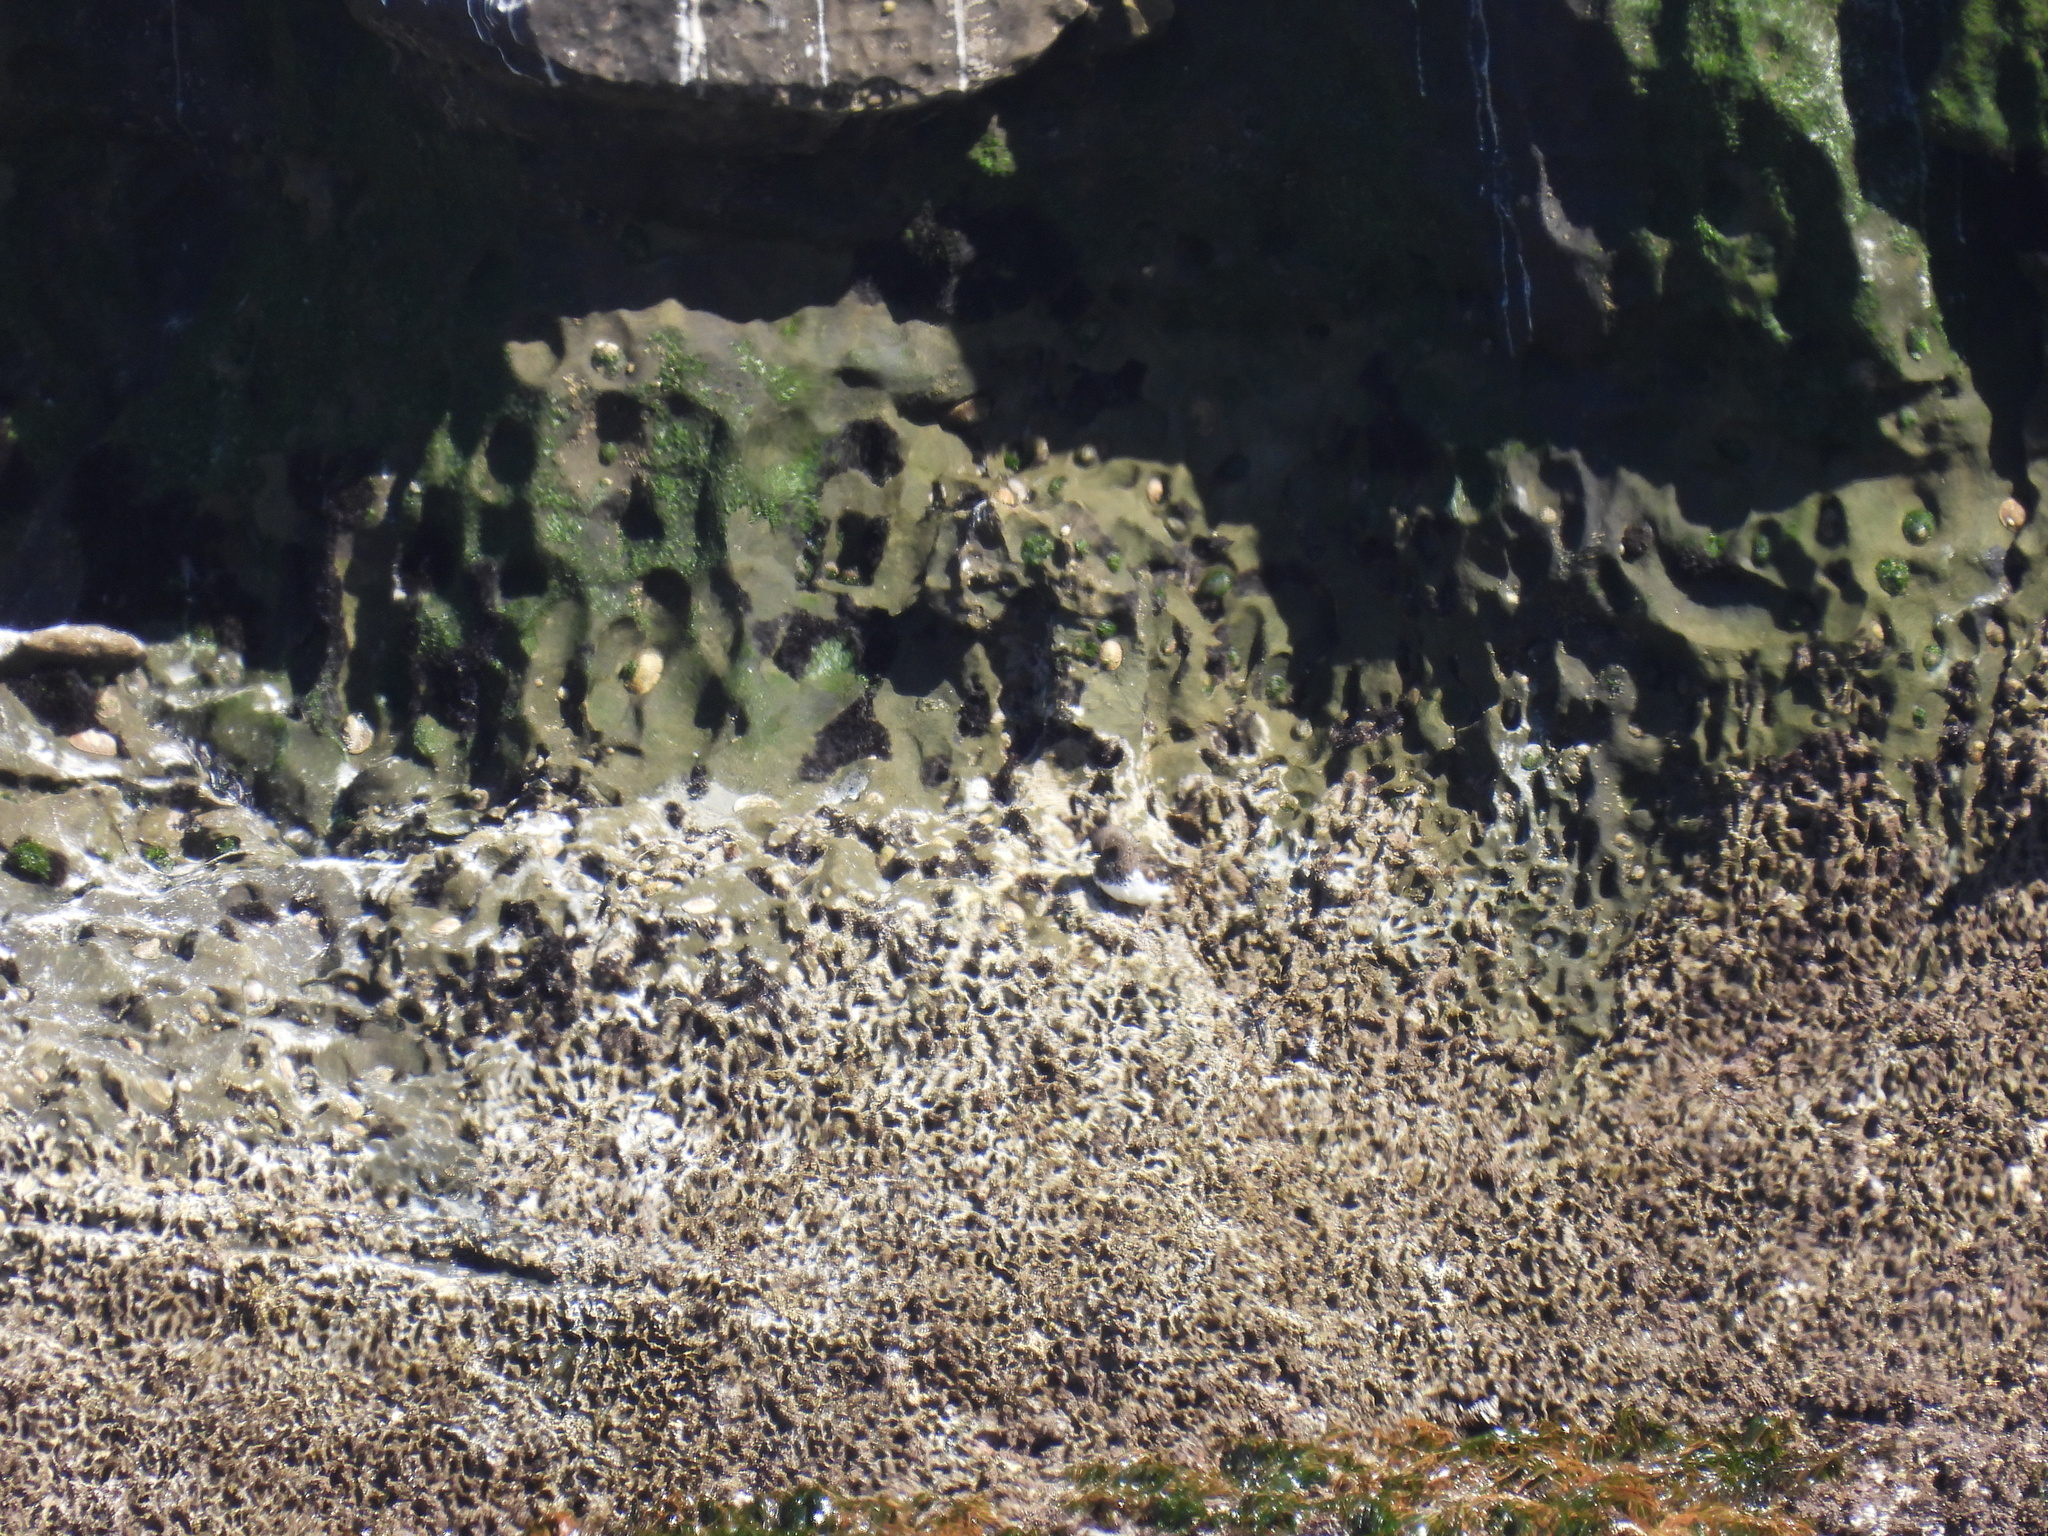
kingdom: Animalia
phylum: Chordata
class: Aves
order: Charadriiformes
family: Scolopacidae
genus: Arenaria
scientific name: Arenaria melanocephala
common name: Black turnstone
